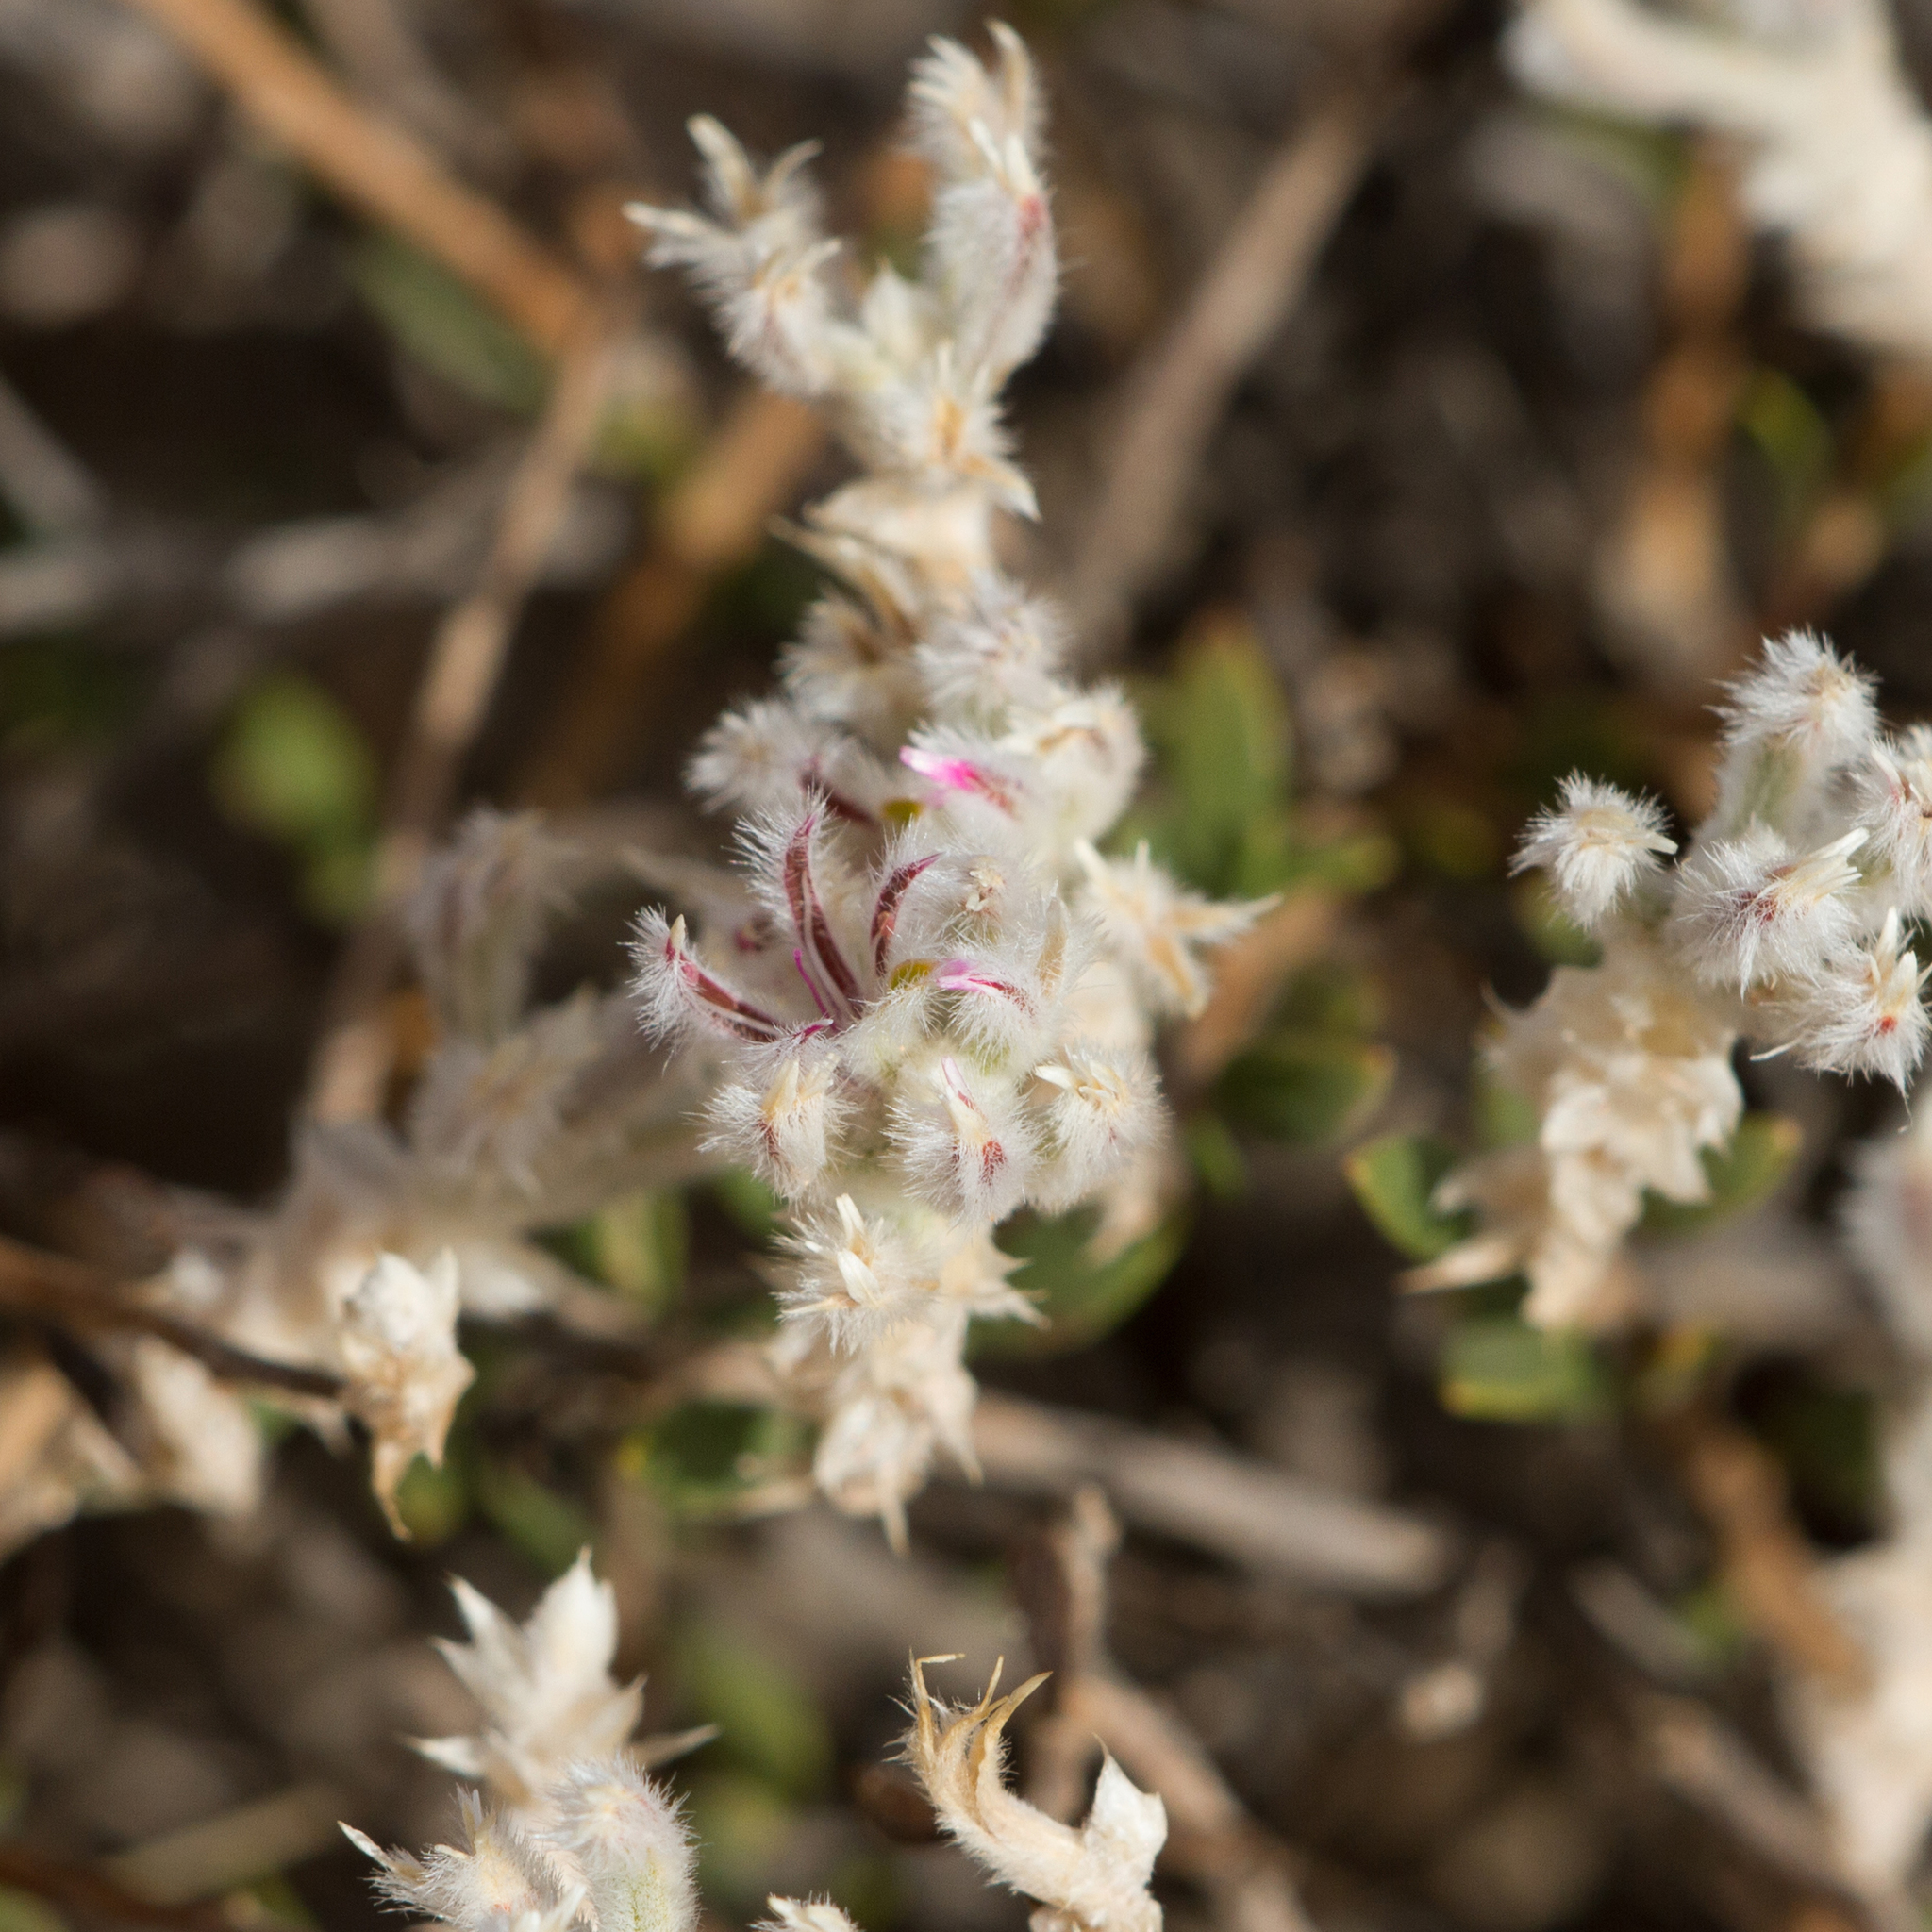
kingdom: Plantae
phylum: Tracheophyta
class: Magnoliopsida
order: Caryophyllales
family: Amaranthaceae
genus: Ptilotus
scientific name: Ptilotus barkeri
